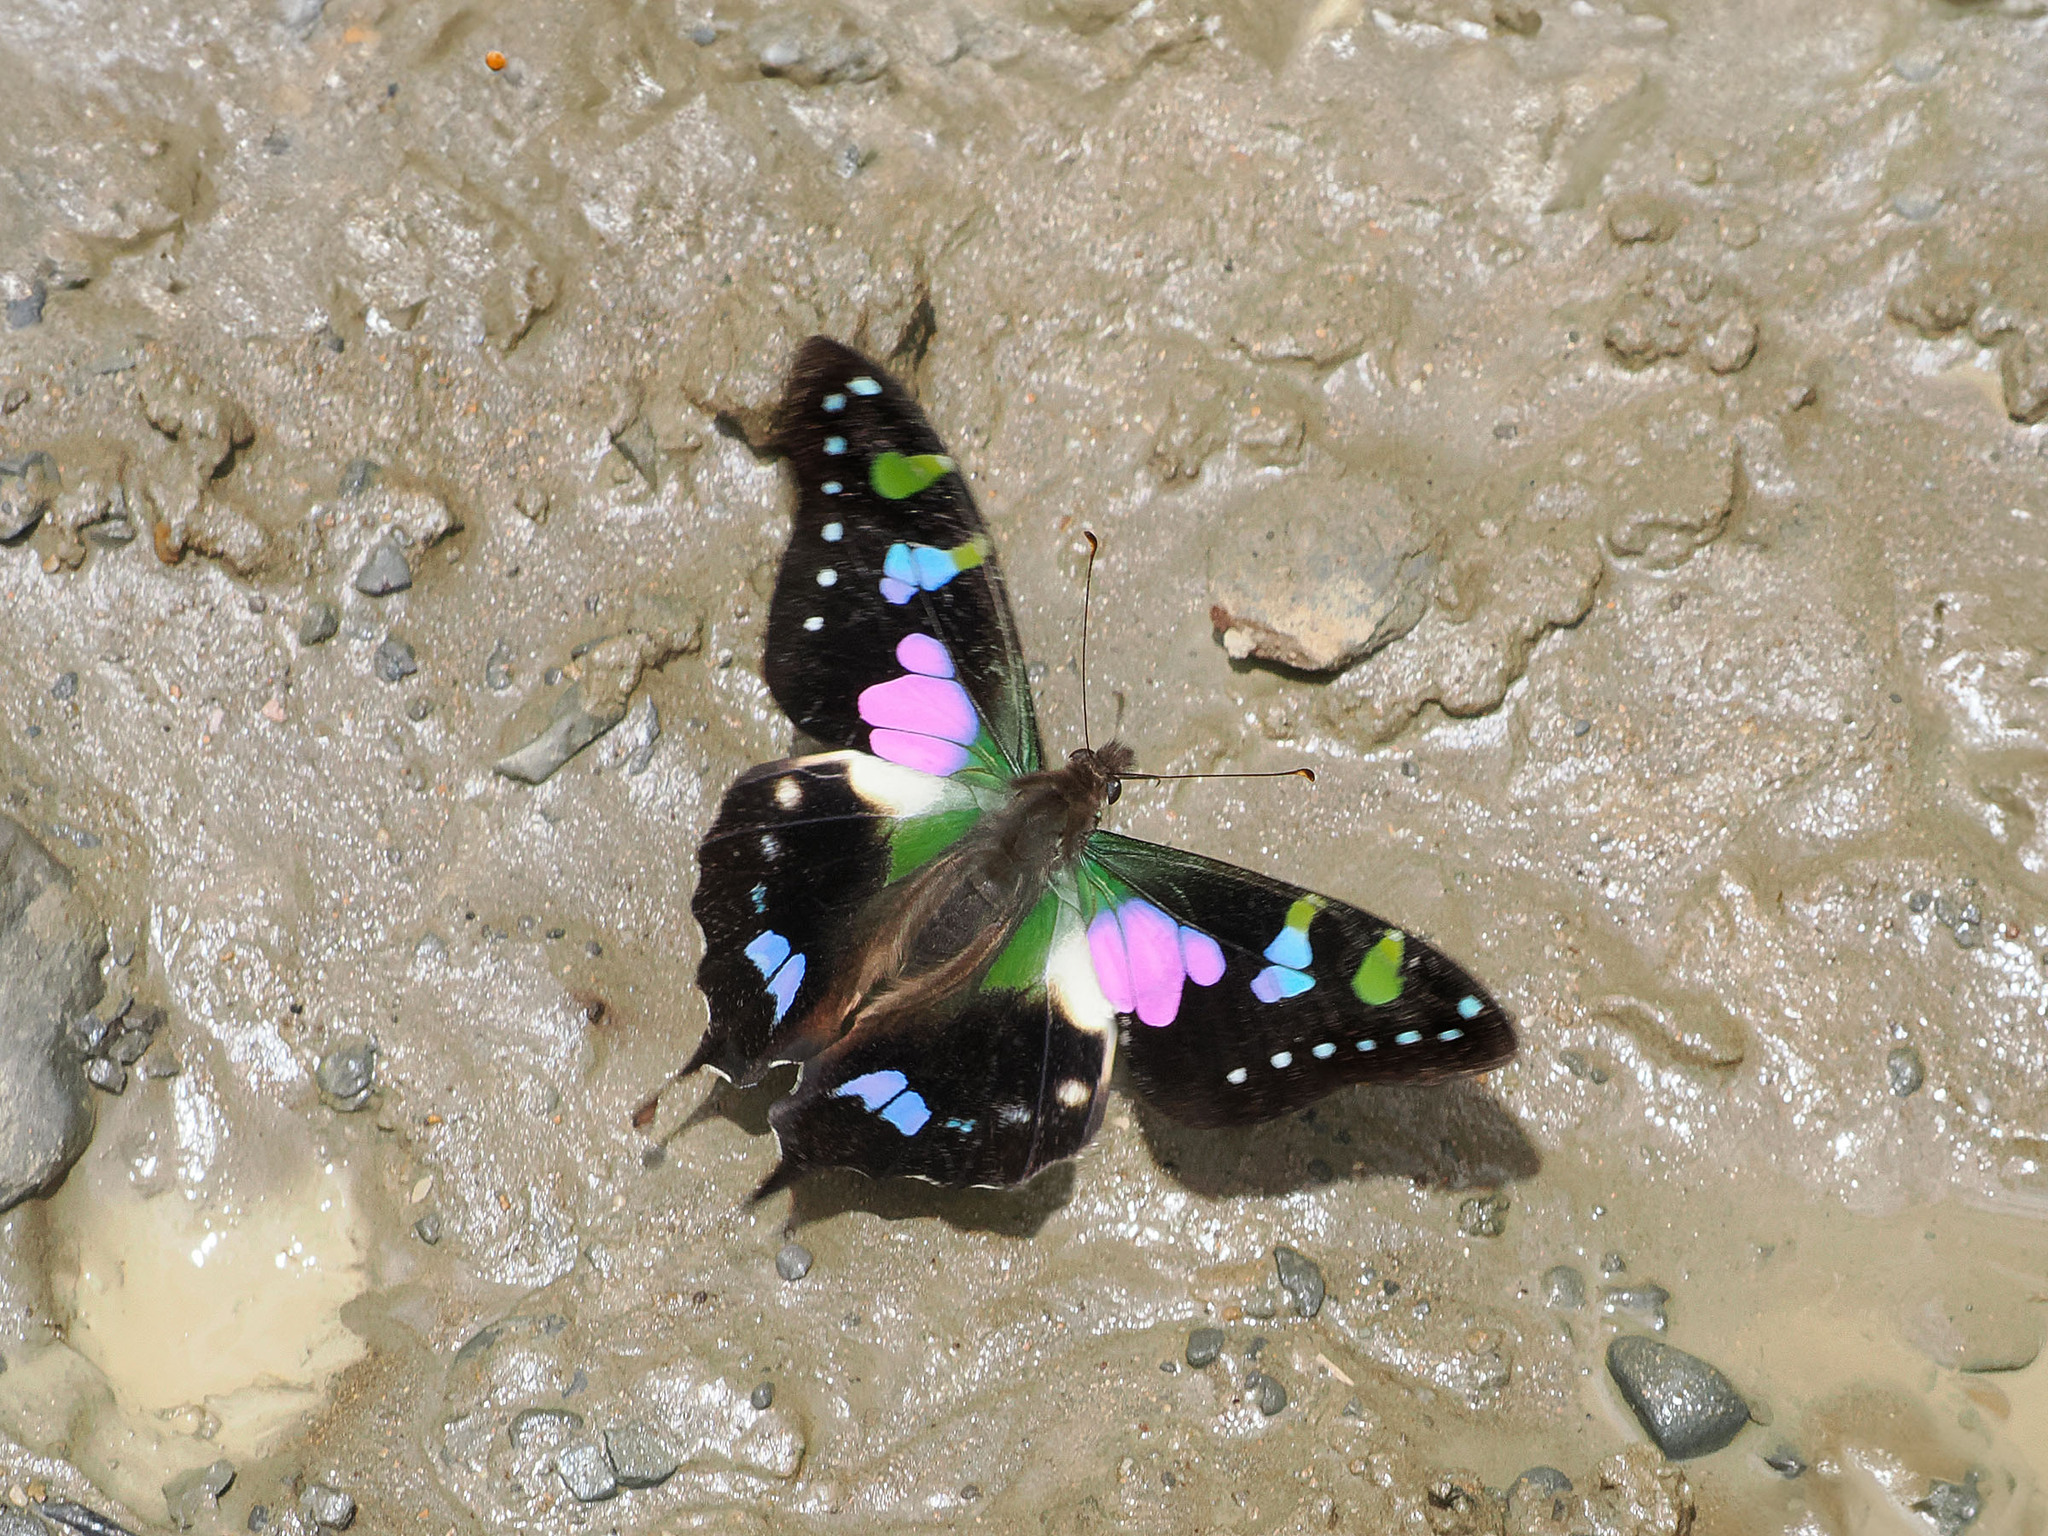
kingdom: Animalia
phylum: Arthropoda
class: Insecta
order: Lepidoptera
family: Papilionidae
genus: Graphium
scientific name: Graphium weiskei
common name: Purple spotted swallowtail
